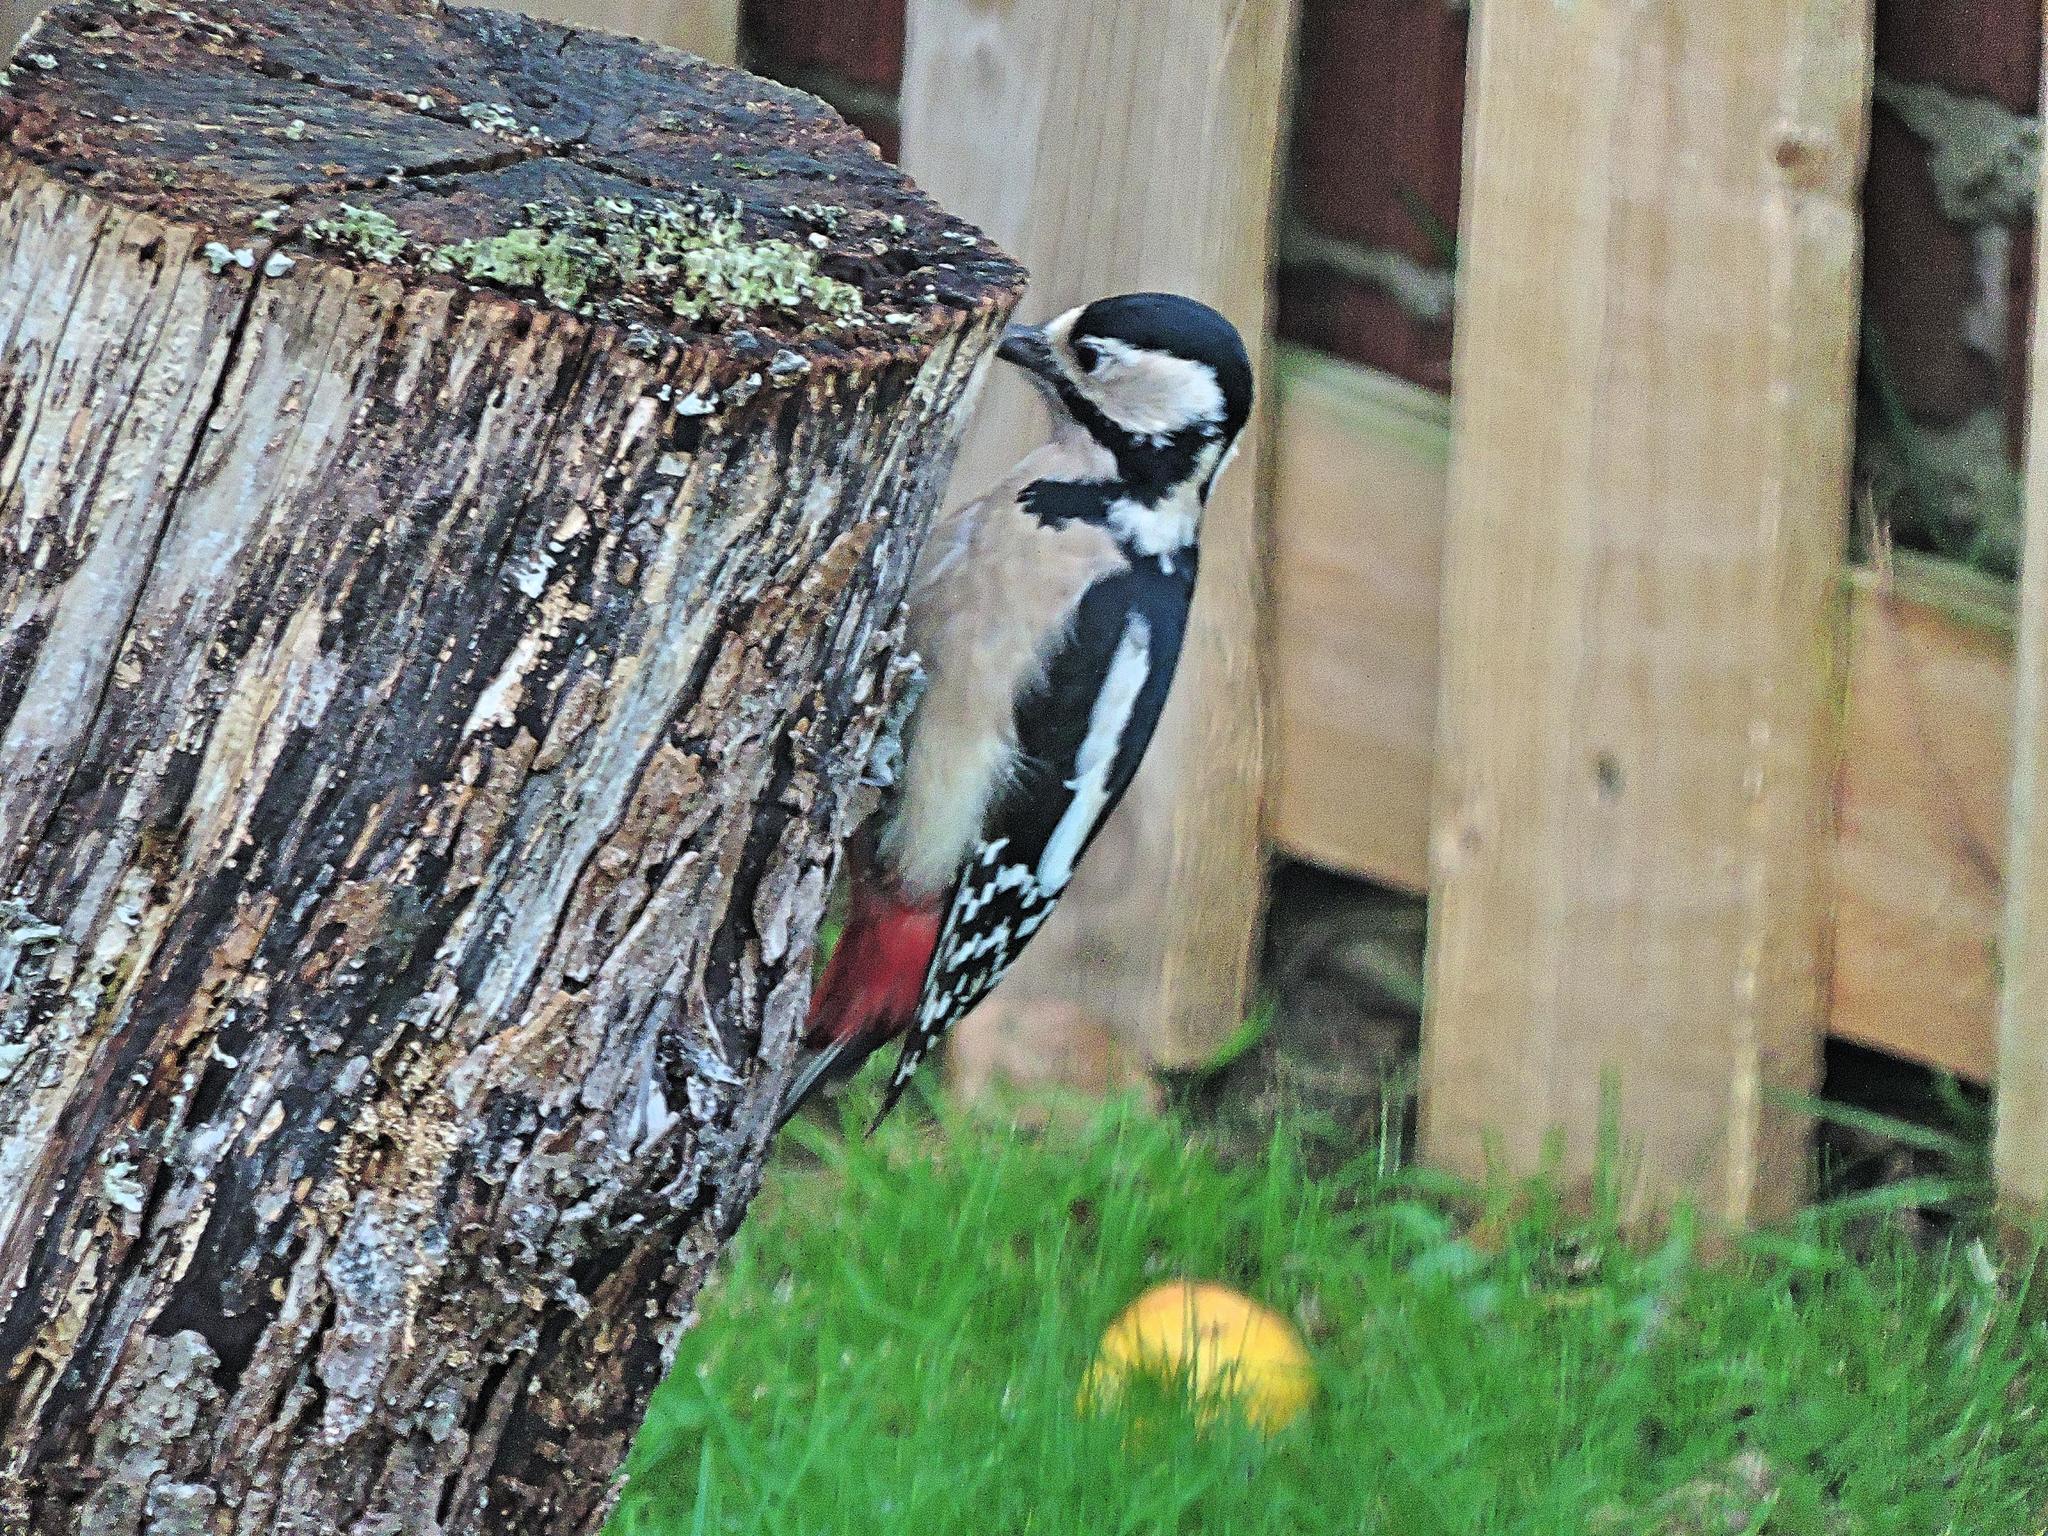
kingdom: Animalia
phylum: Chordata
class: Aves
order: Piciformes
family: Picidae
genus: Dendrocopos
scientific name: Dendrocopos major
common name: Great spotted woodpecker
